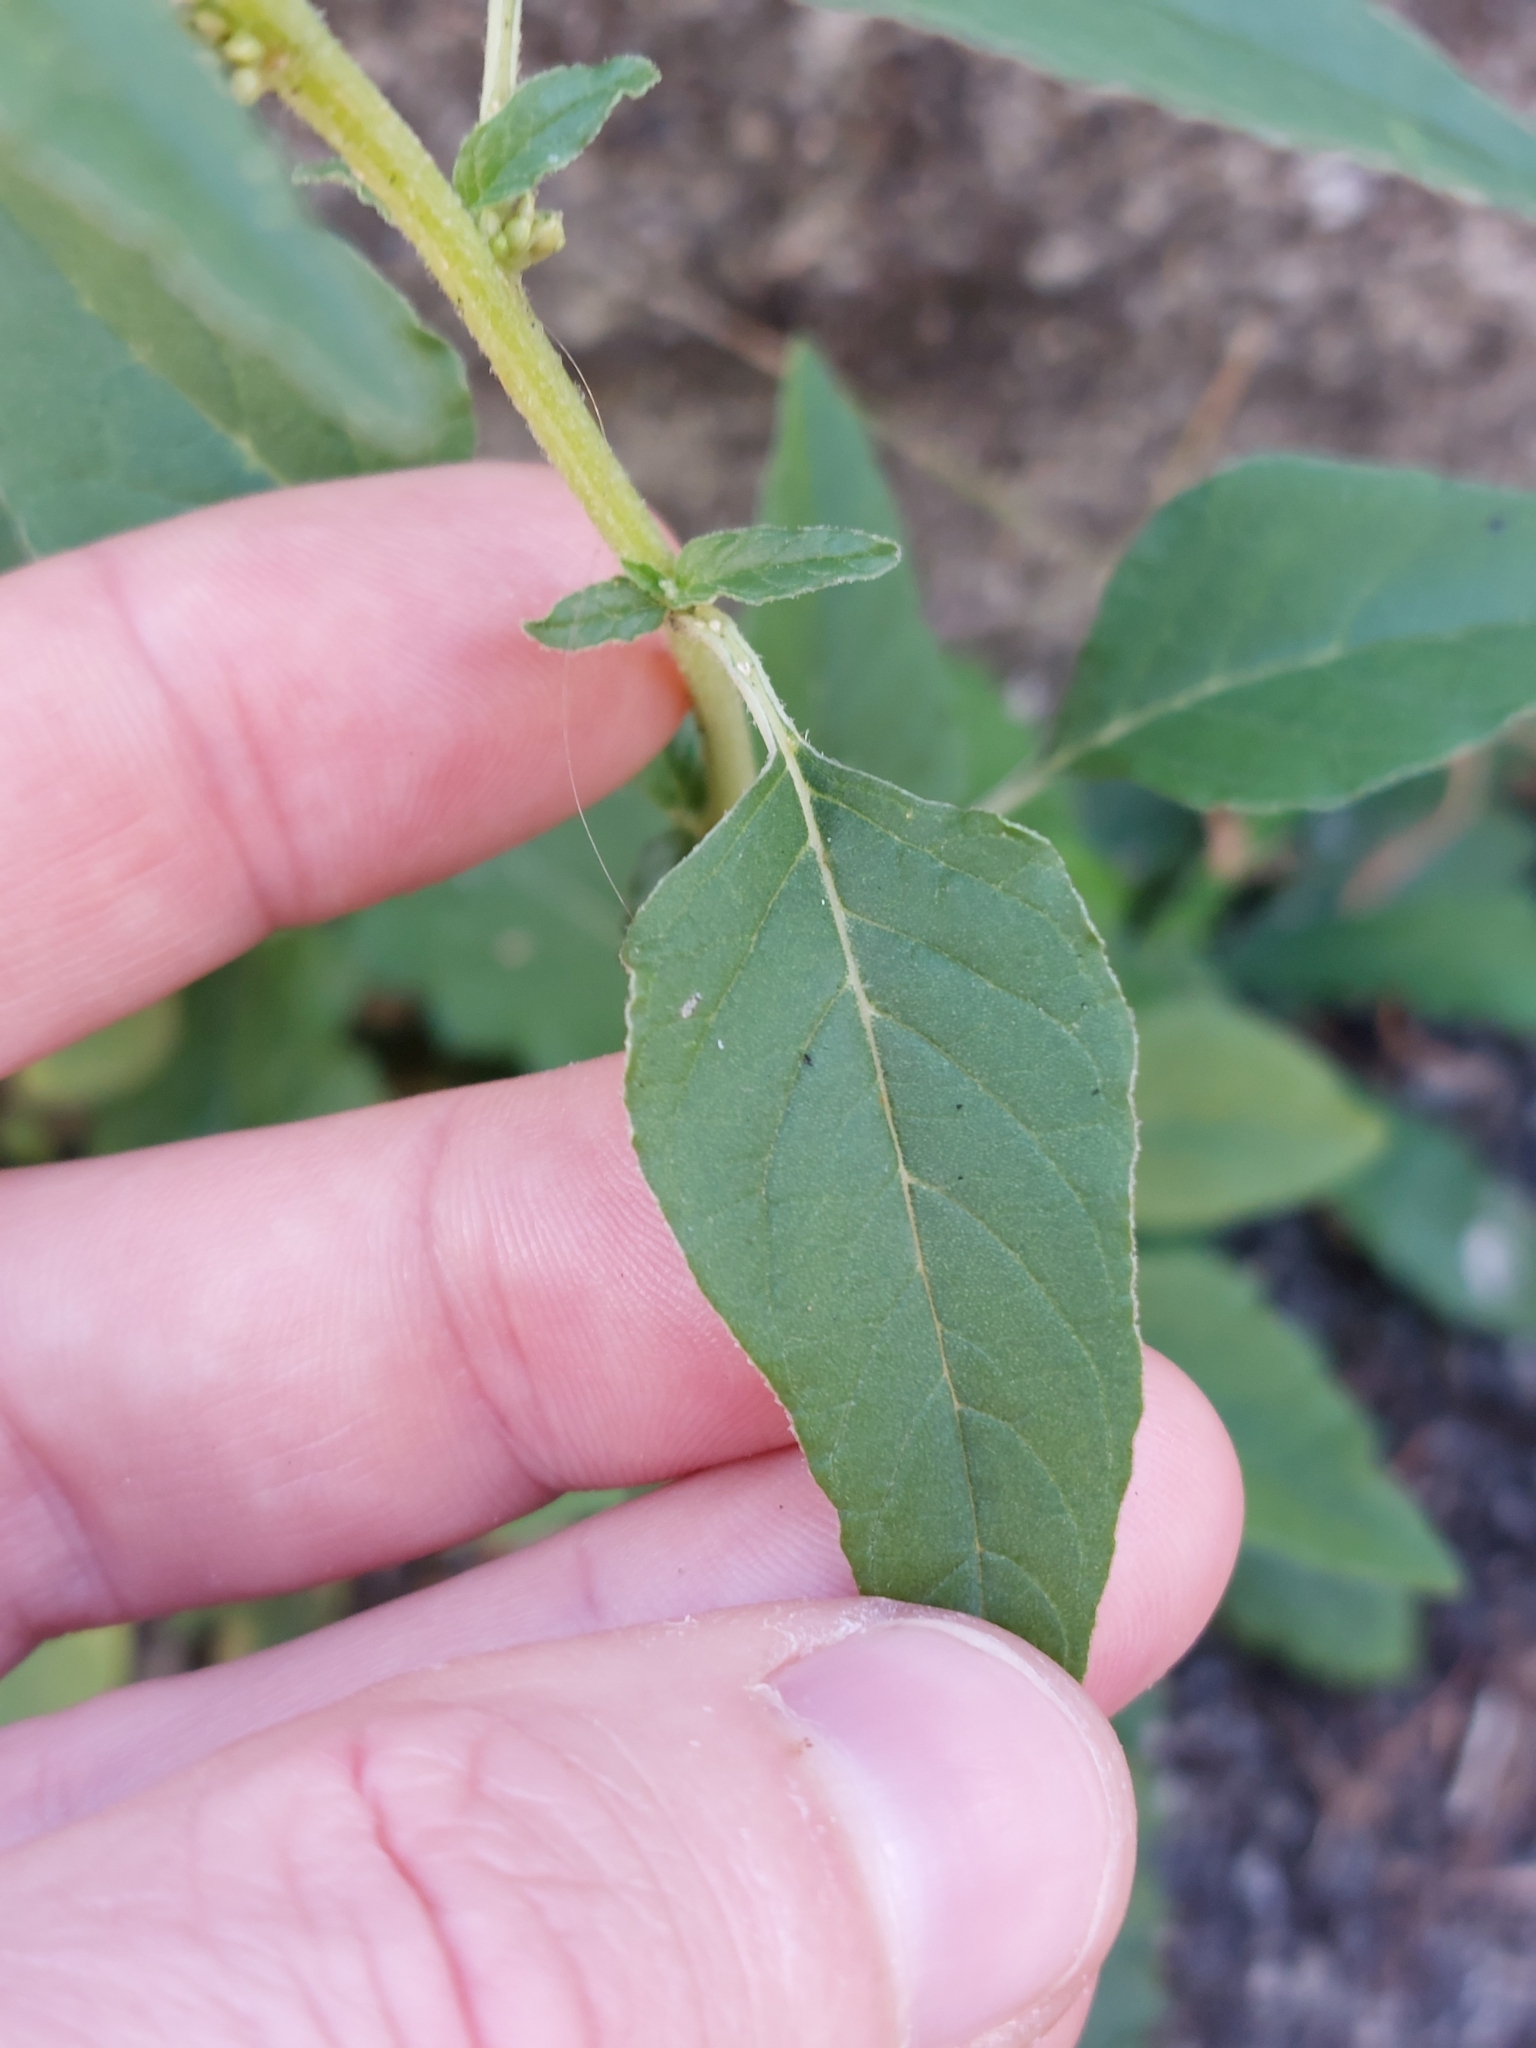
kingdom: Plantae
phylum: Tracheophyta
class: Magnoliopsida
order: Caryophyllales
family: Amaranthaceae
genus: Amaranthus
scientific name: Amaranthus deflexus
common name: Perennial pigweed
